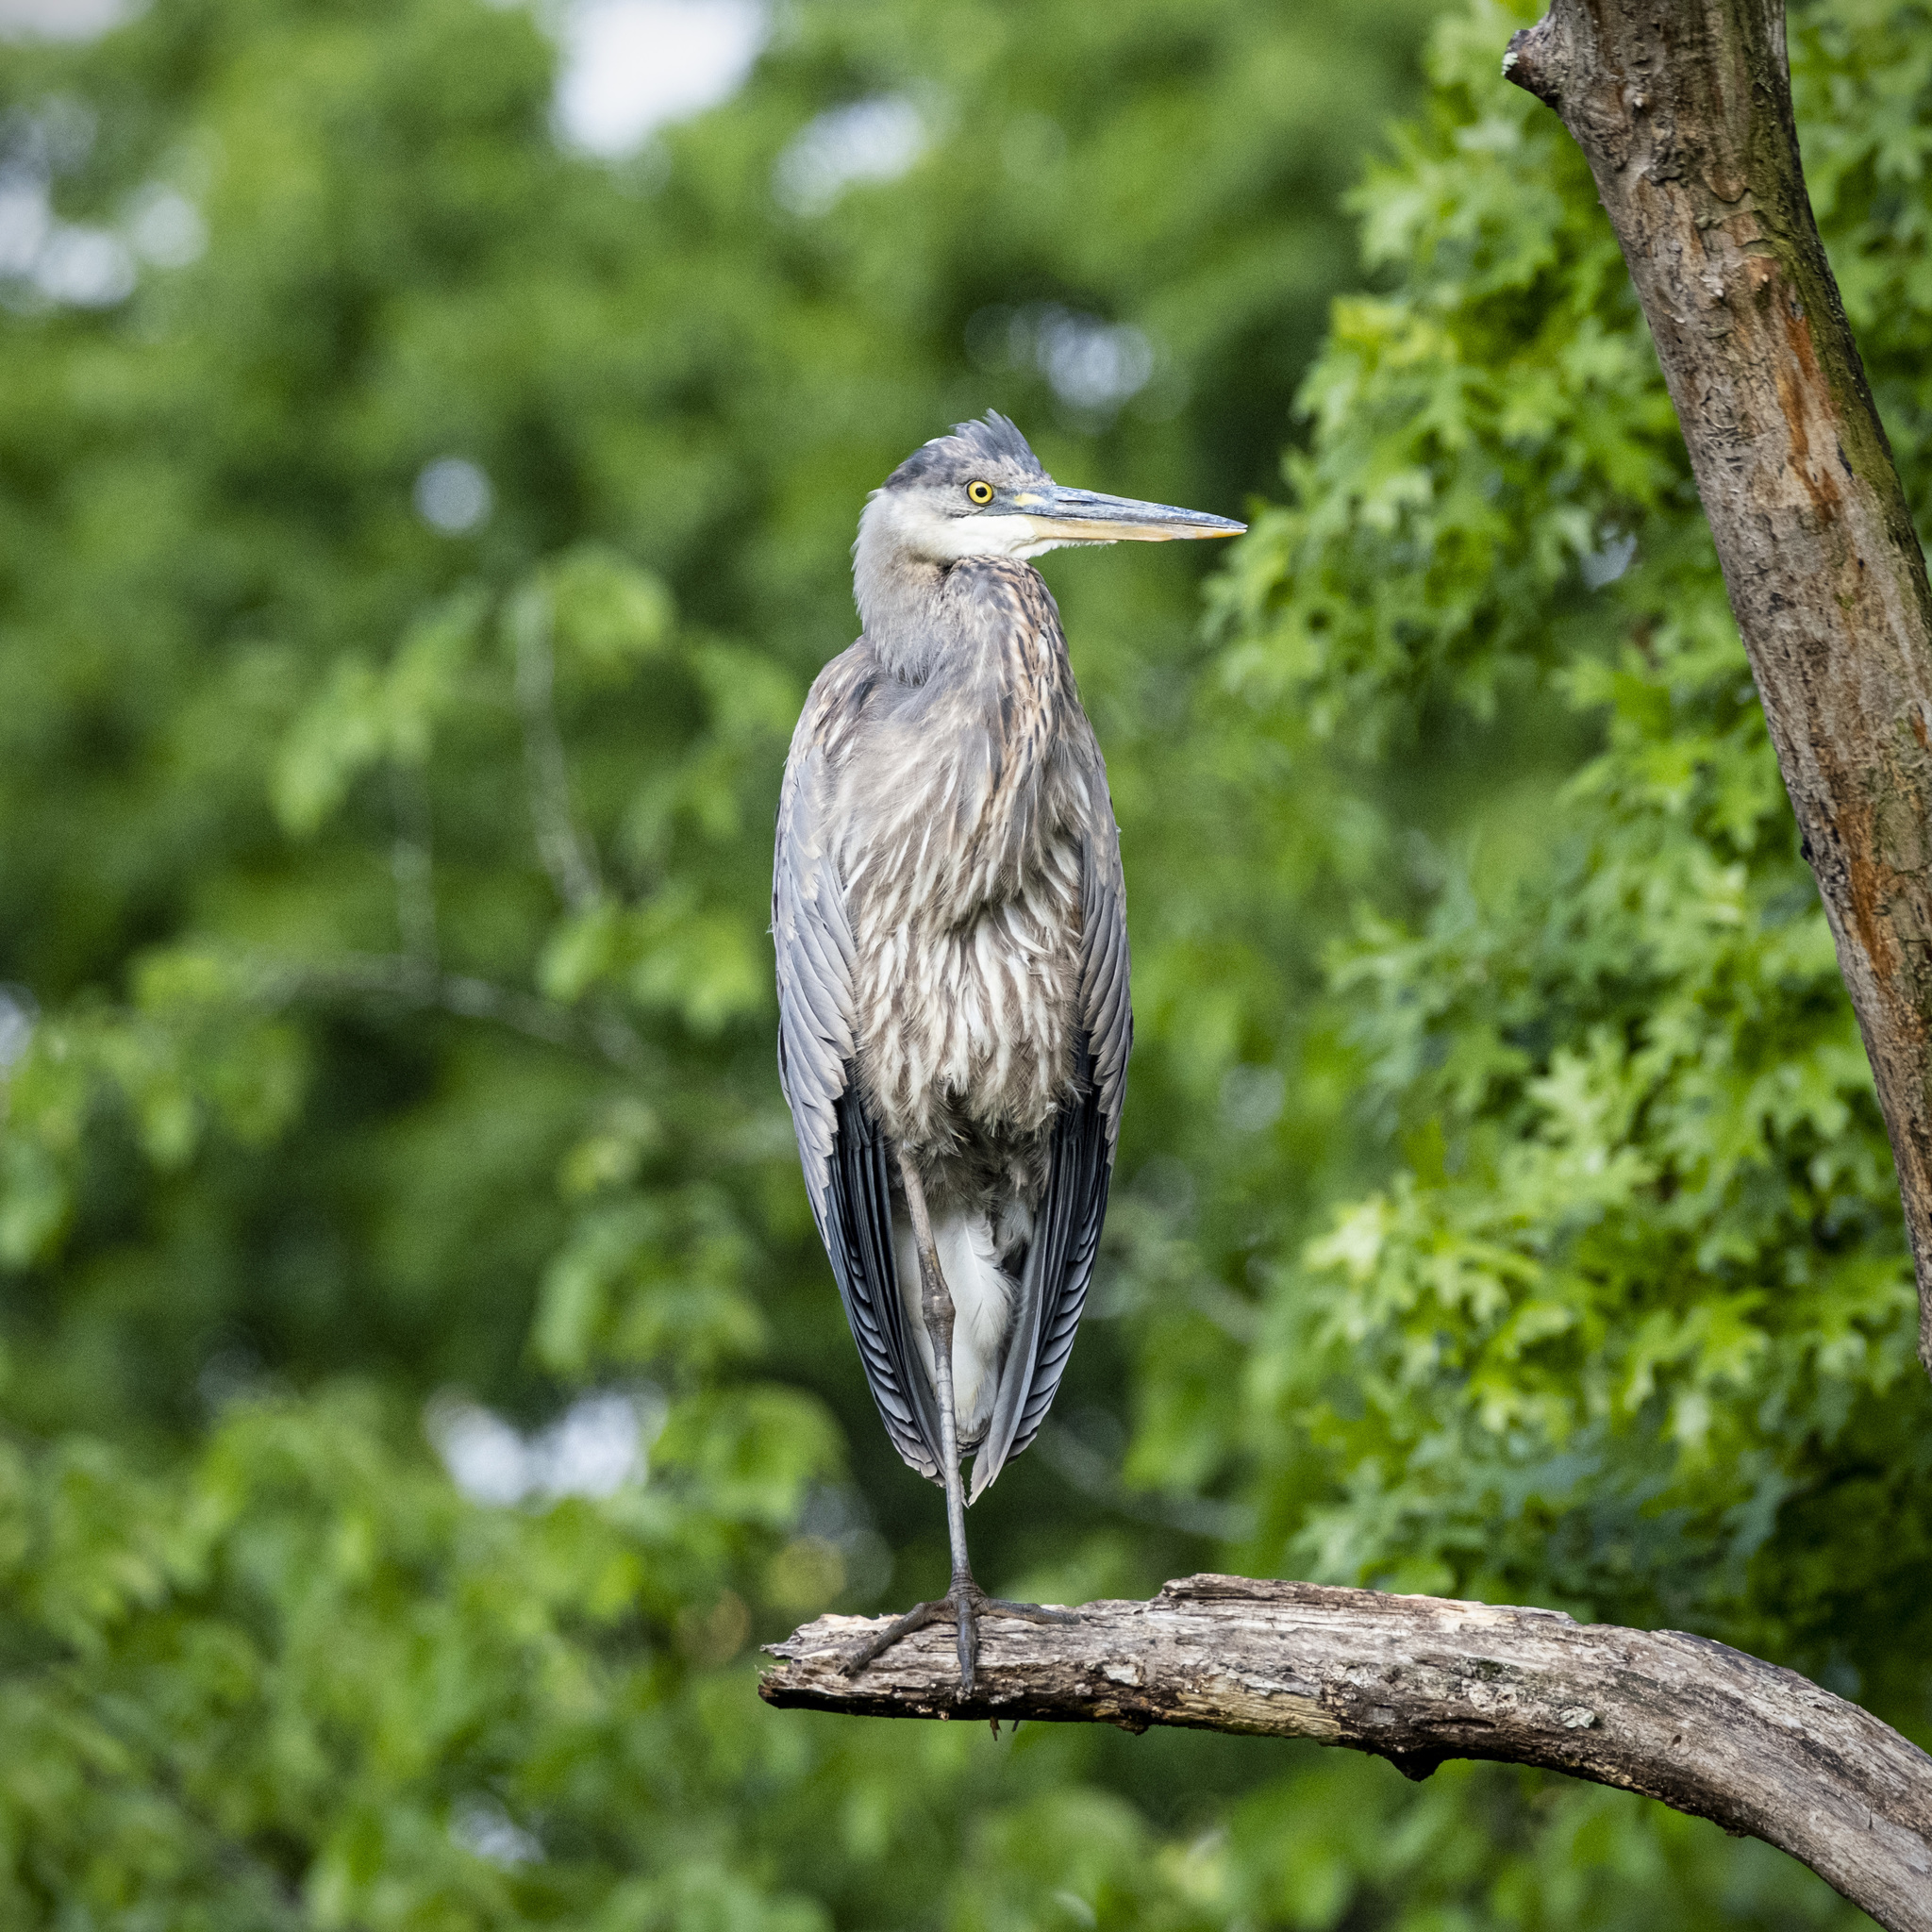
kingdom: Animalia
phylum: Chordata
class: Aves
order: Pelecaniformes
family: Ardeidae
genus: Ardea
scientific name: Ardea herodias
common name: Great blue heron
